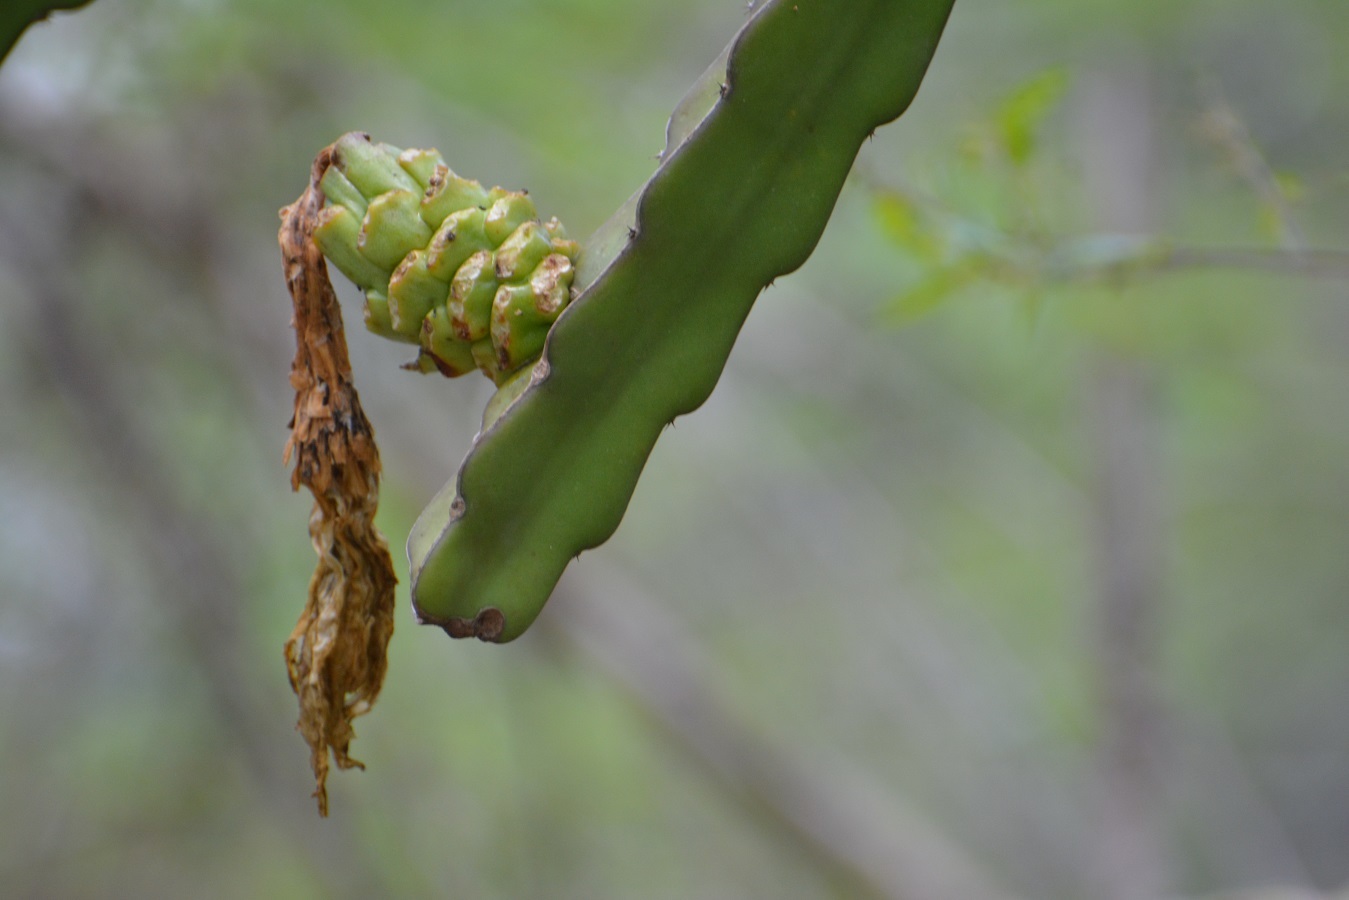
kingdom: Plantae
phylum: Tracheophyta
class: Magnoliopsida
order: Caryophyllales
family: Cactaceae
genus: Selenicereus
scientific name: Selenicereus ocamponis
